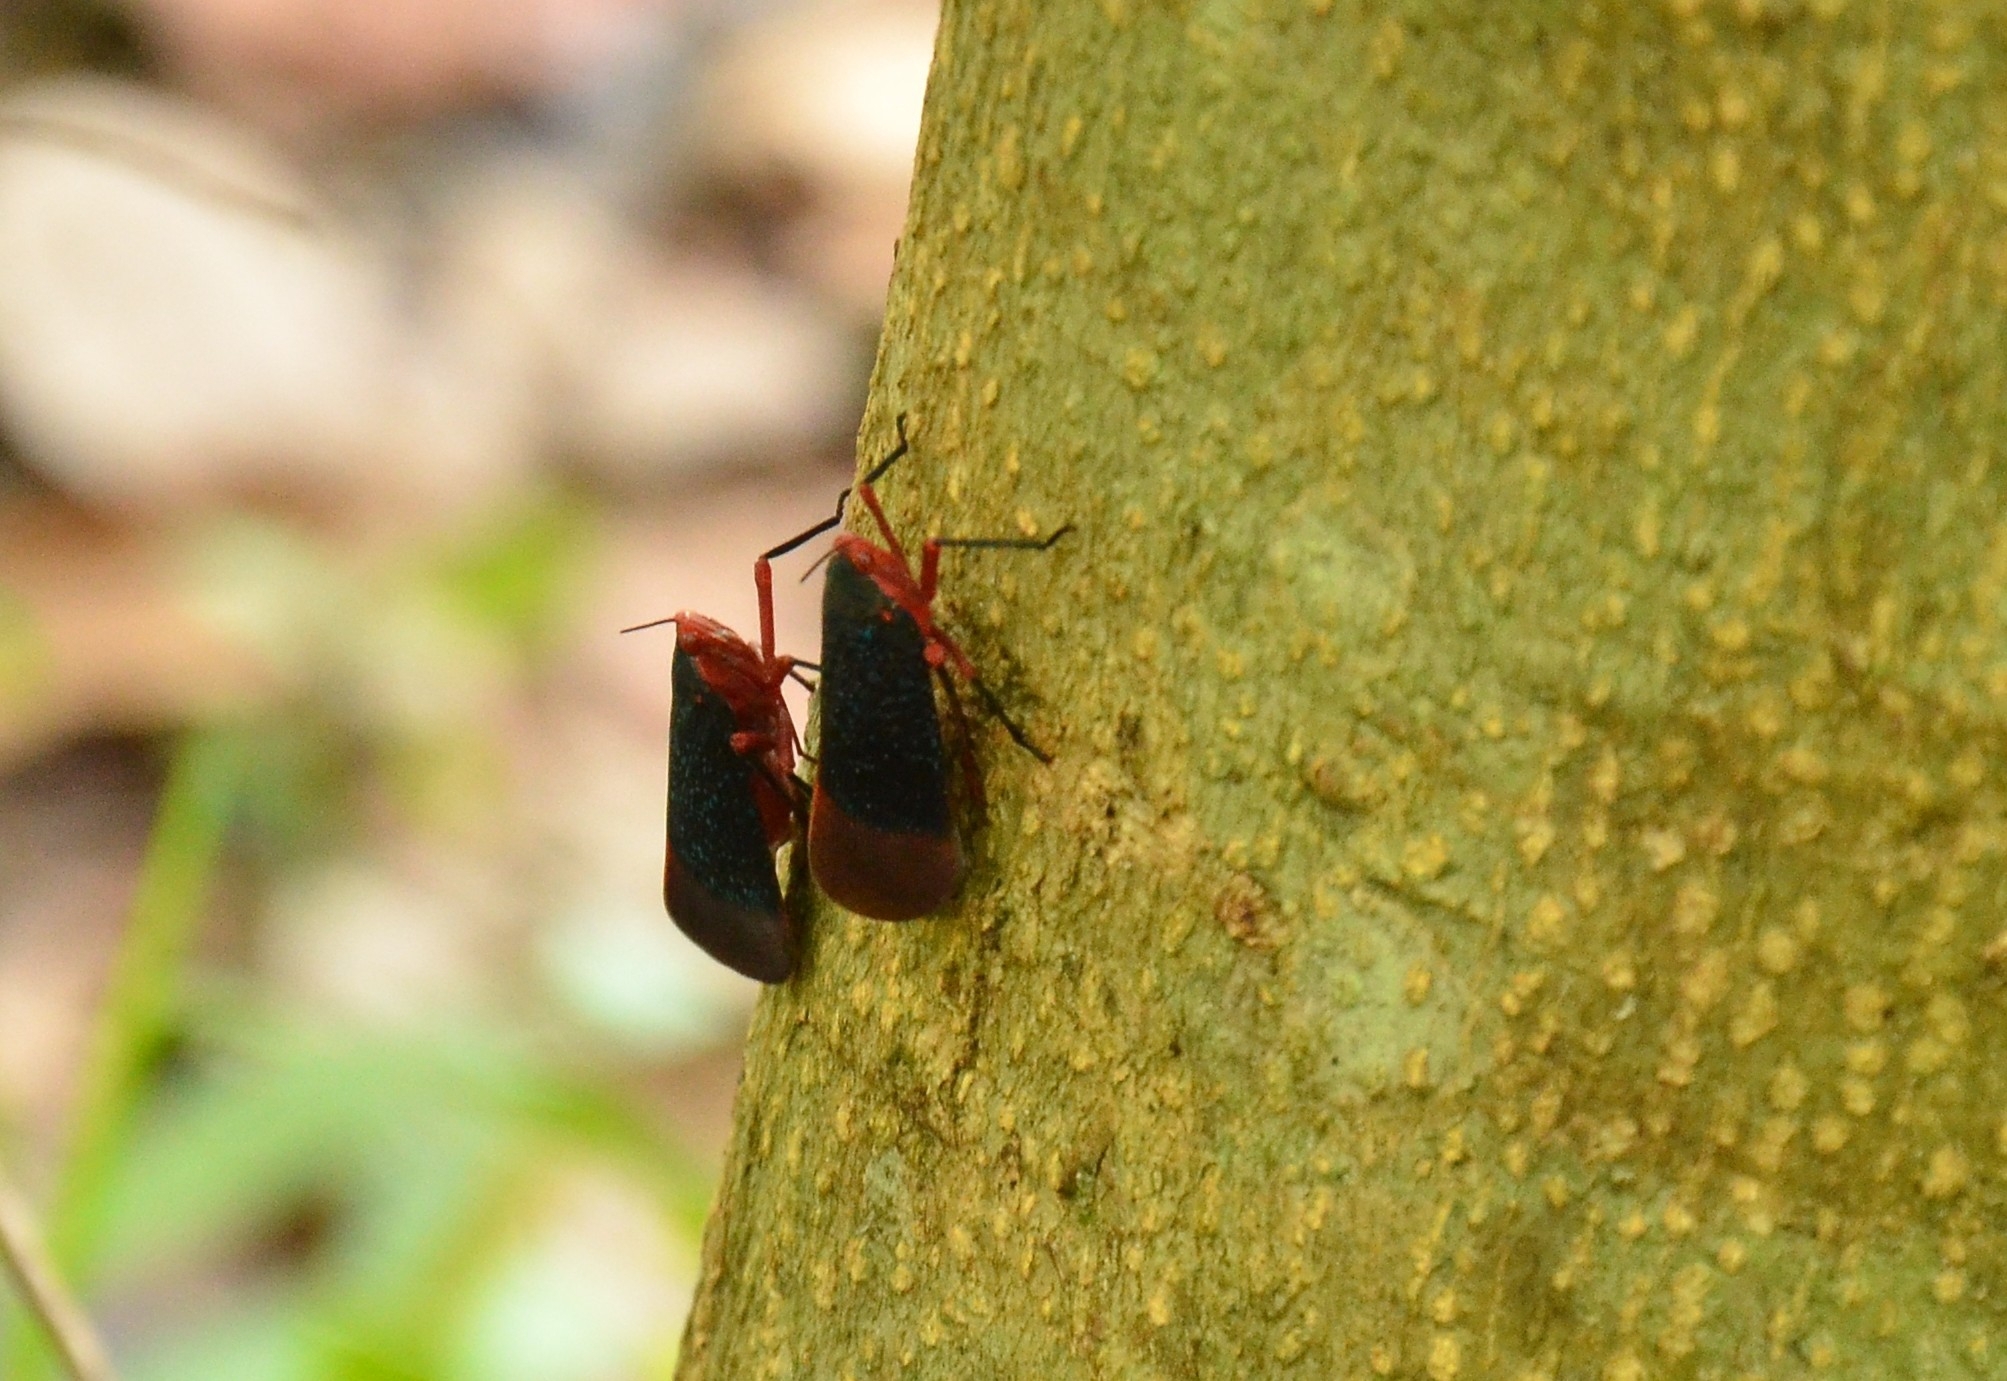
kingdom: Animalia
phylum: Arthropoda
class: Insecta
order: Hemiptera
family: Fulgoridae
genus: Kalidasa
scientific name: Kalidasa lanata
